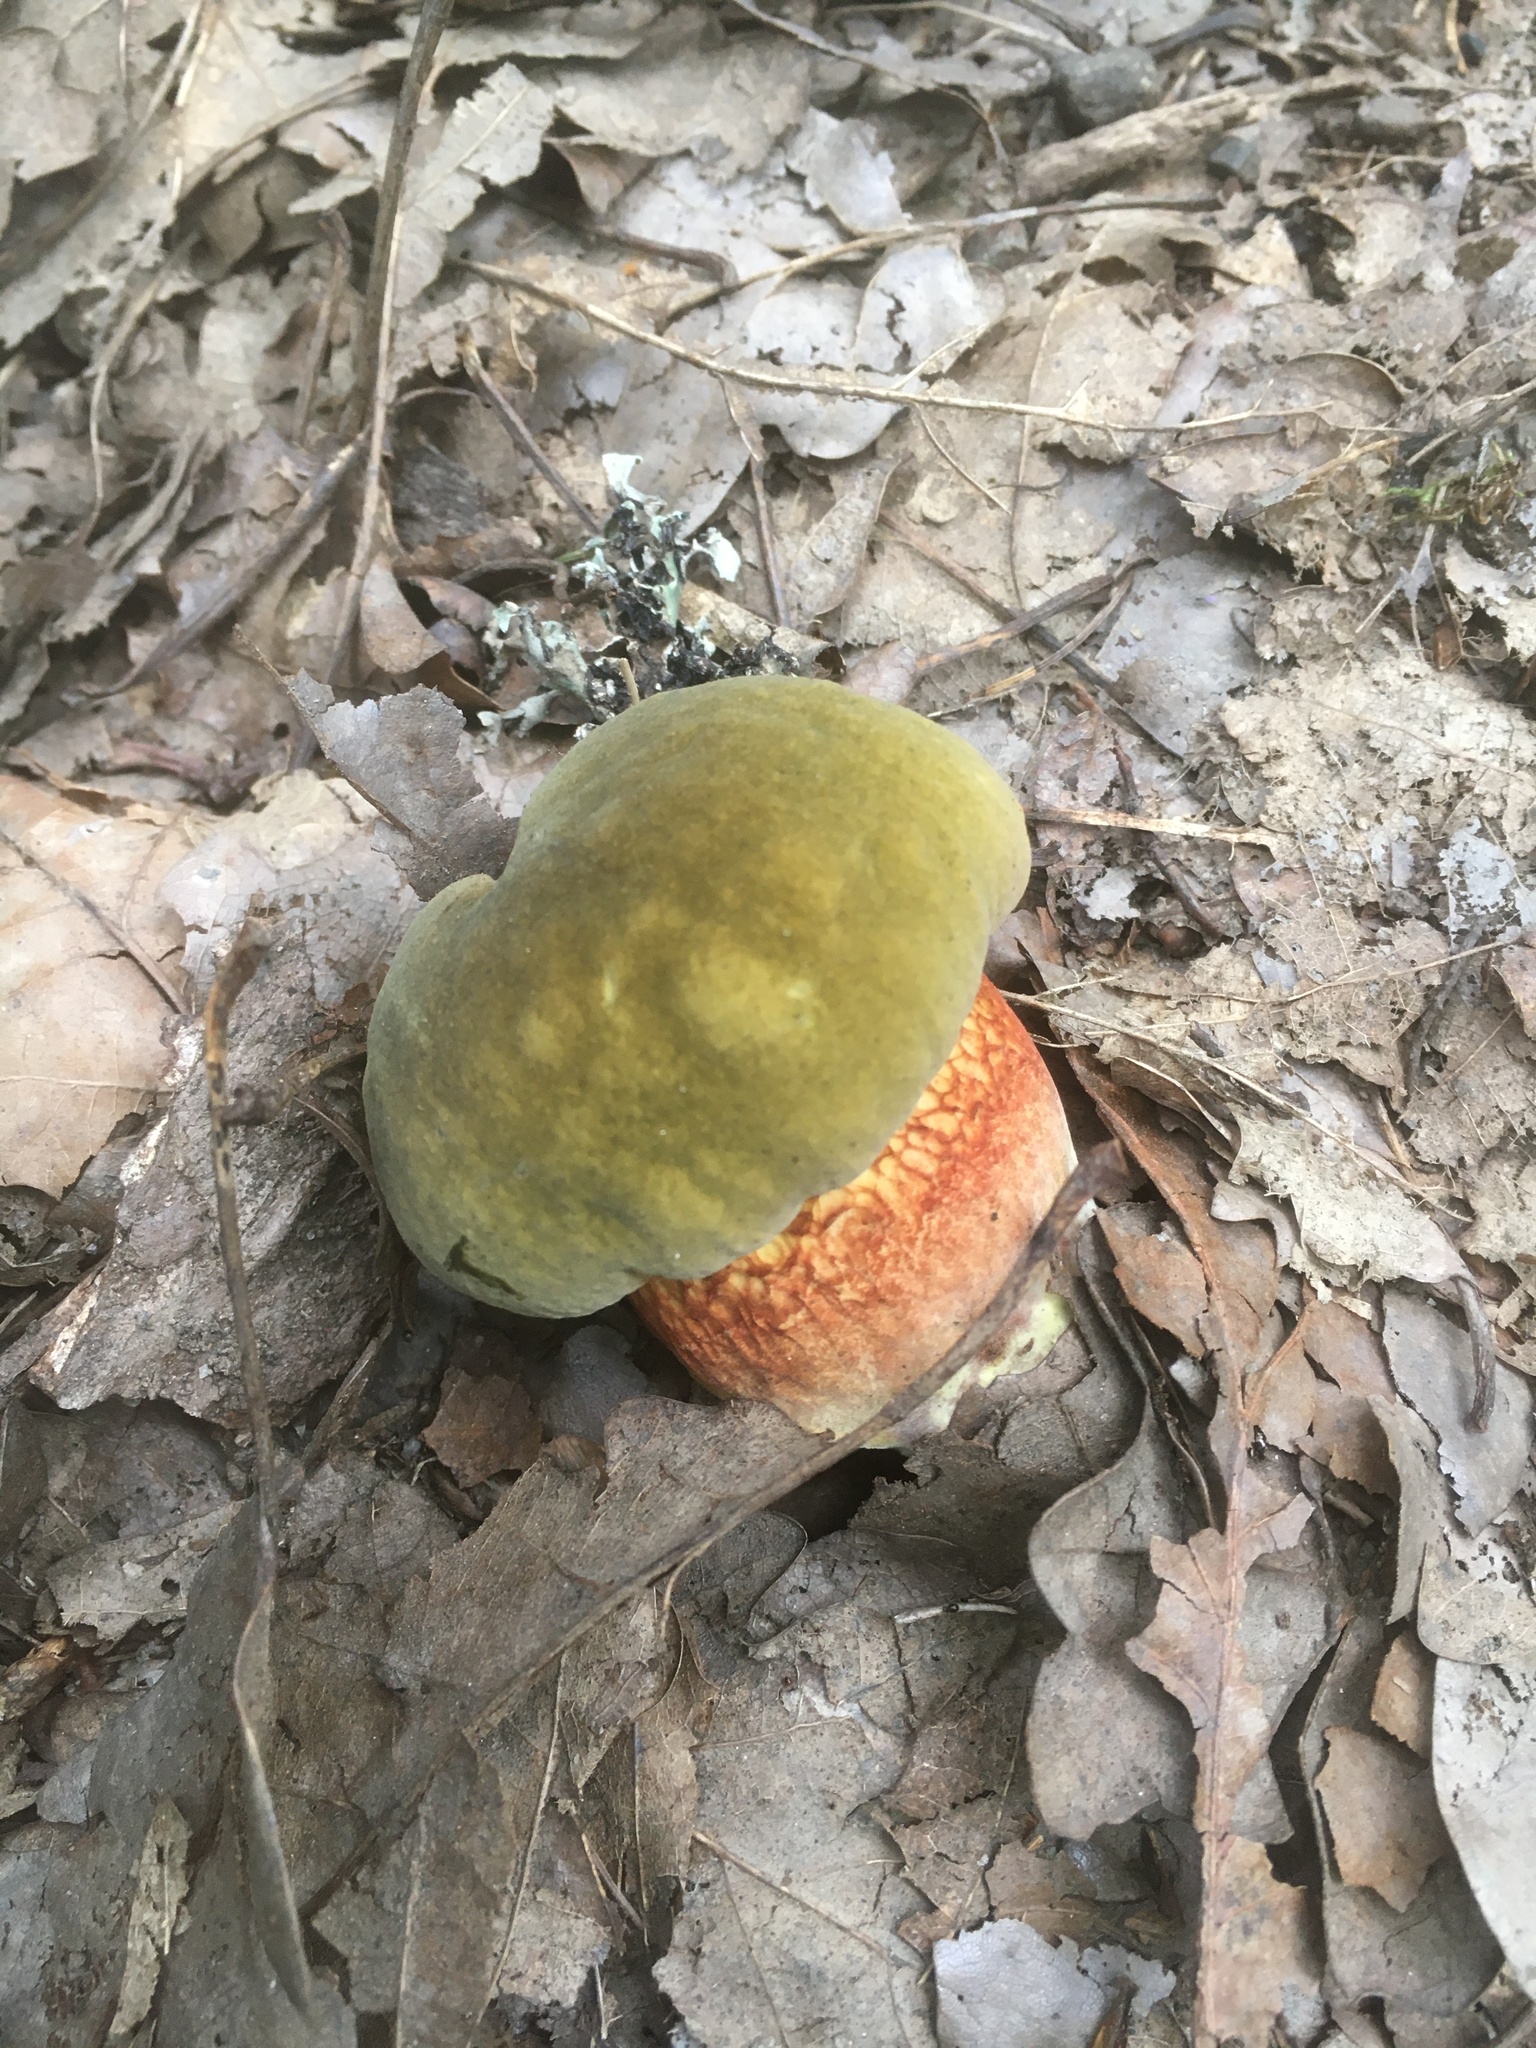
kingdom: Fungi
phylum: Basidiomycota
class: Agaricomycetes
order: Boletales
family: Boletaceae
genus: Suillellus
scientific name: Suillellus luridus
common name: Lurid bolete
